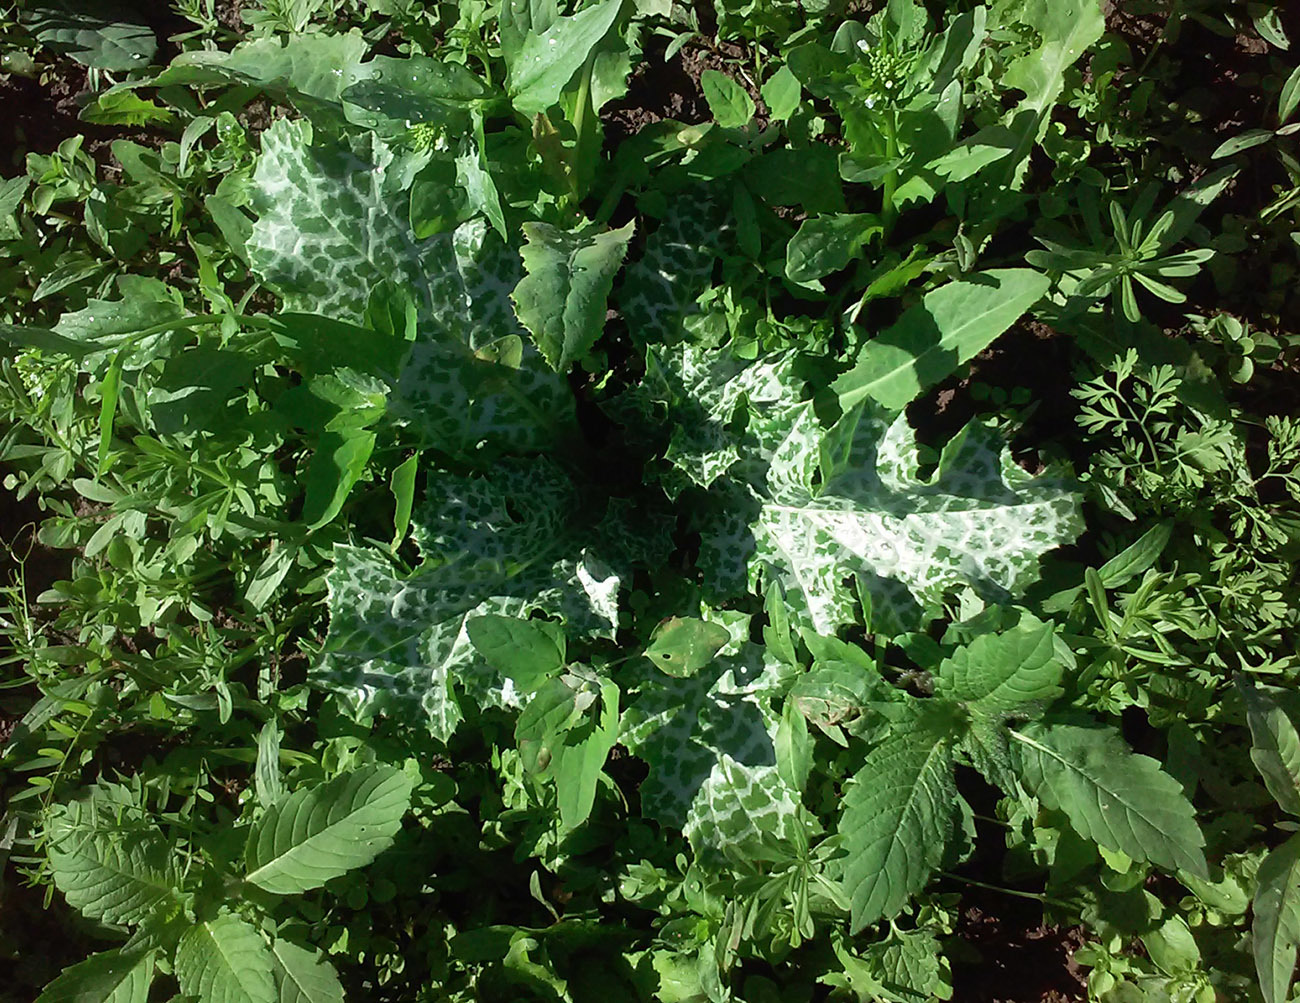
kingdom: Plantae
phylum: Tracheophyta
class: Magnoliopsida
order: Asterales
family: Asteraceae
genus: Silybum
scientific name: Silybum marianum
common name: Milk thistle
